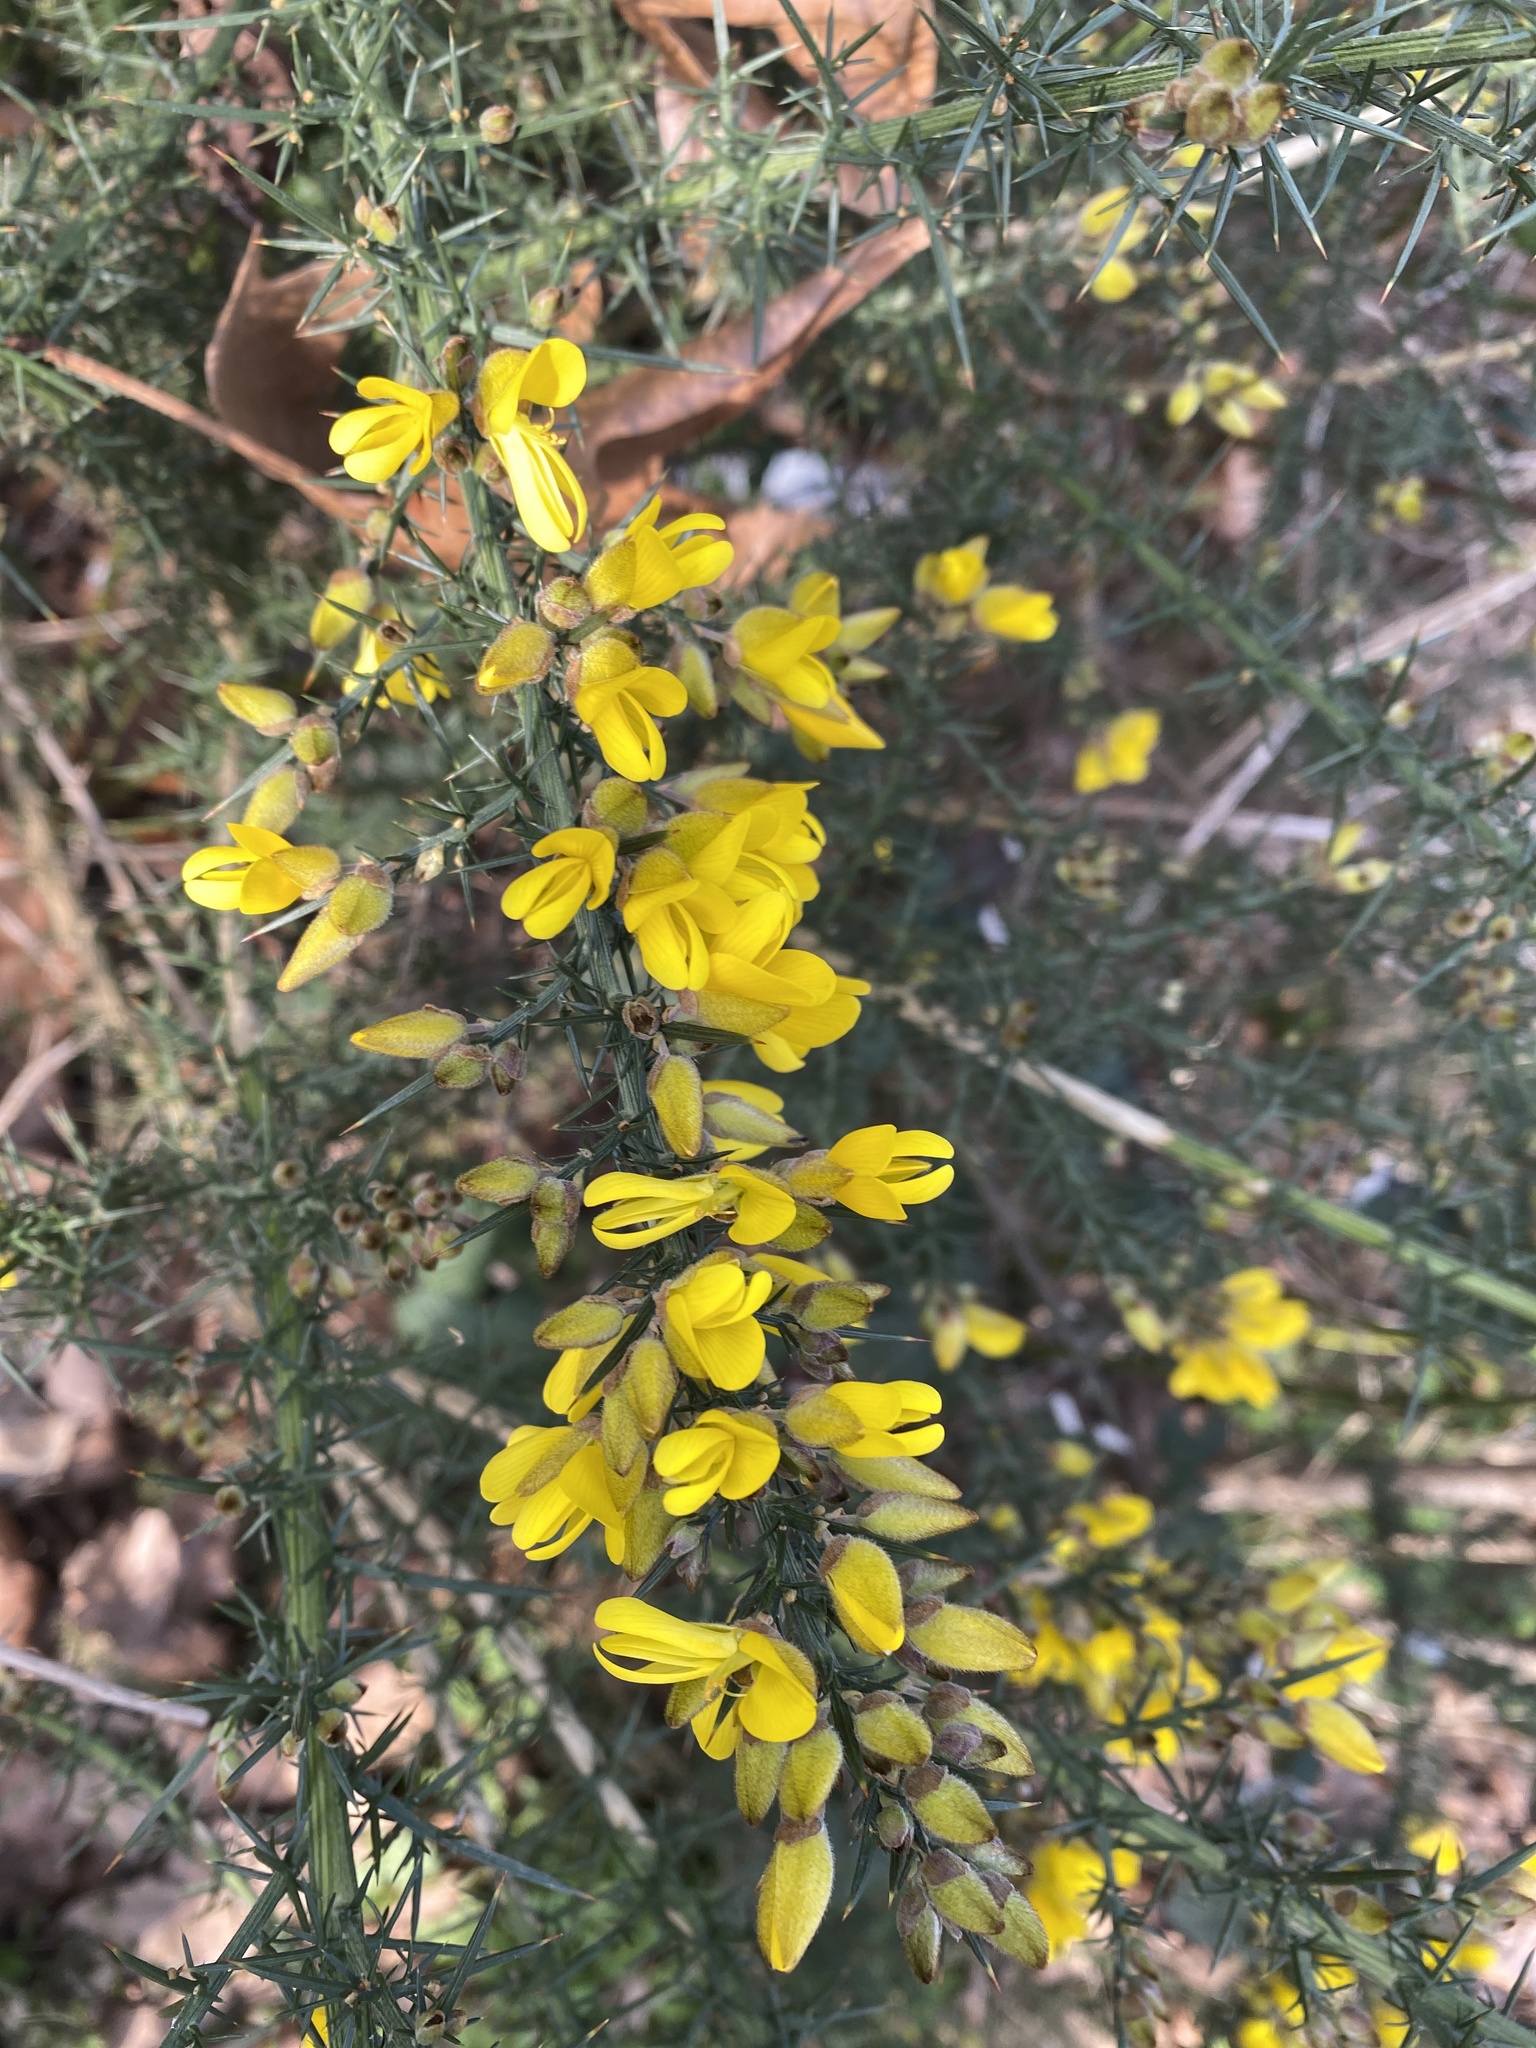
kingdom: Plantae
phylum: Tracheophyta
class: Magnoliopsida
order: Fabales
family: Fabaceae
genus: Ulex
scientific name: Ulex europaeus
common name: Common gorse
